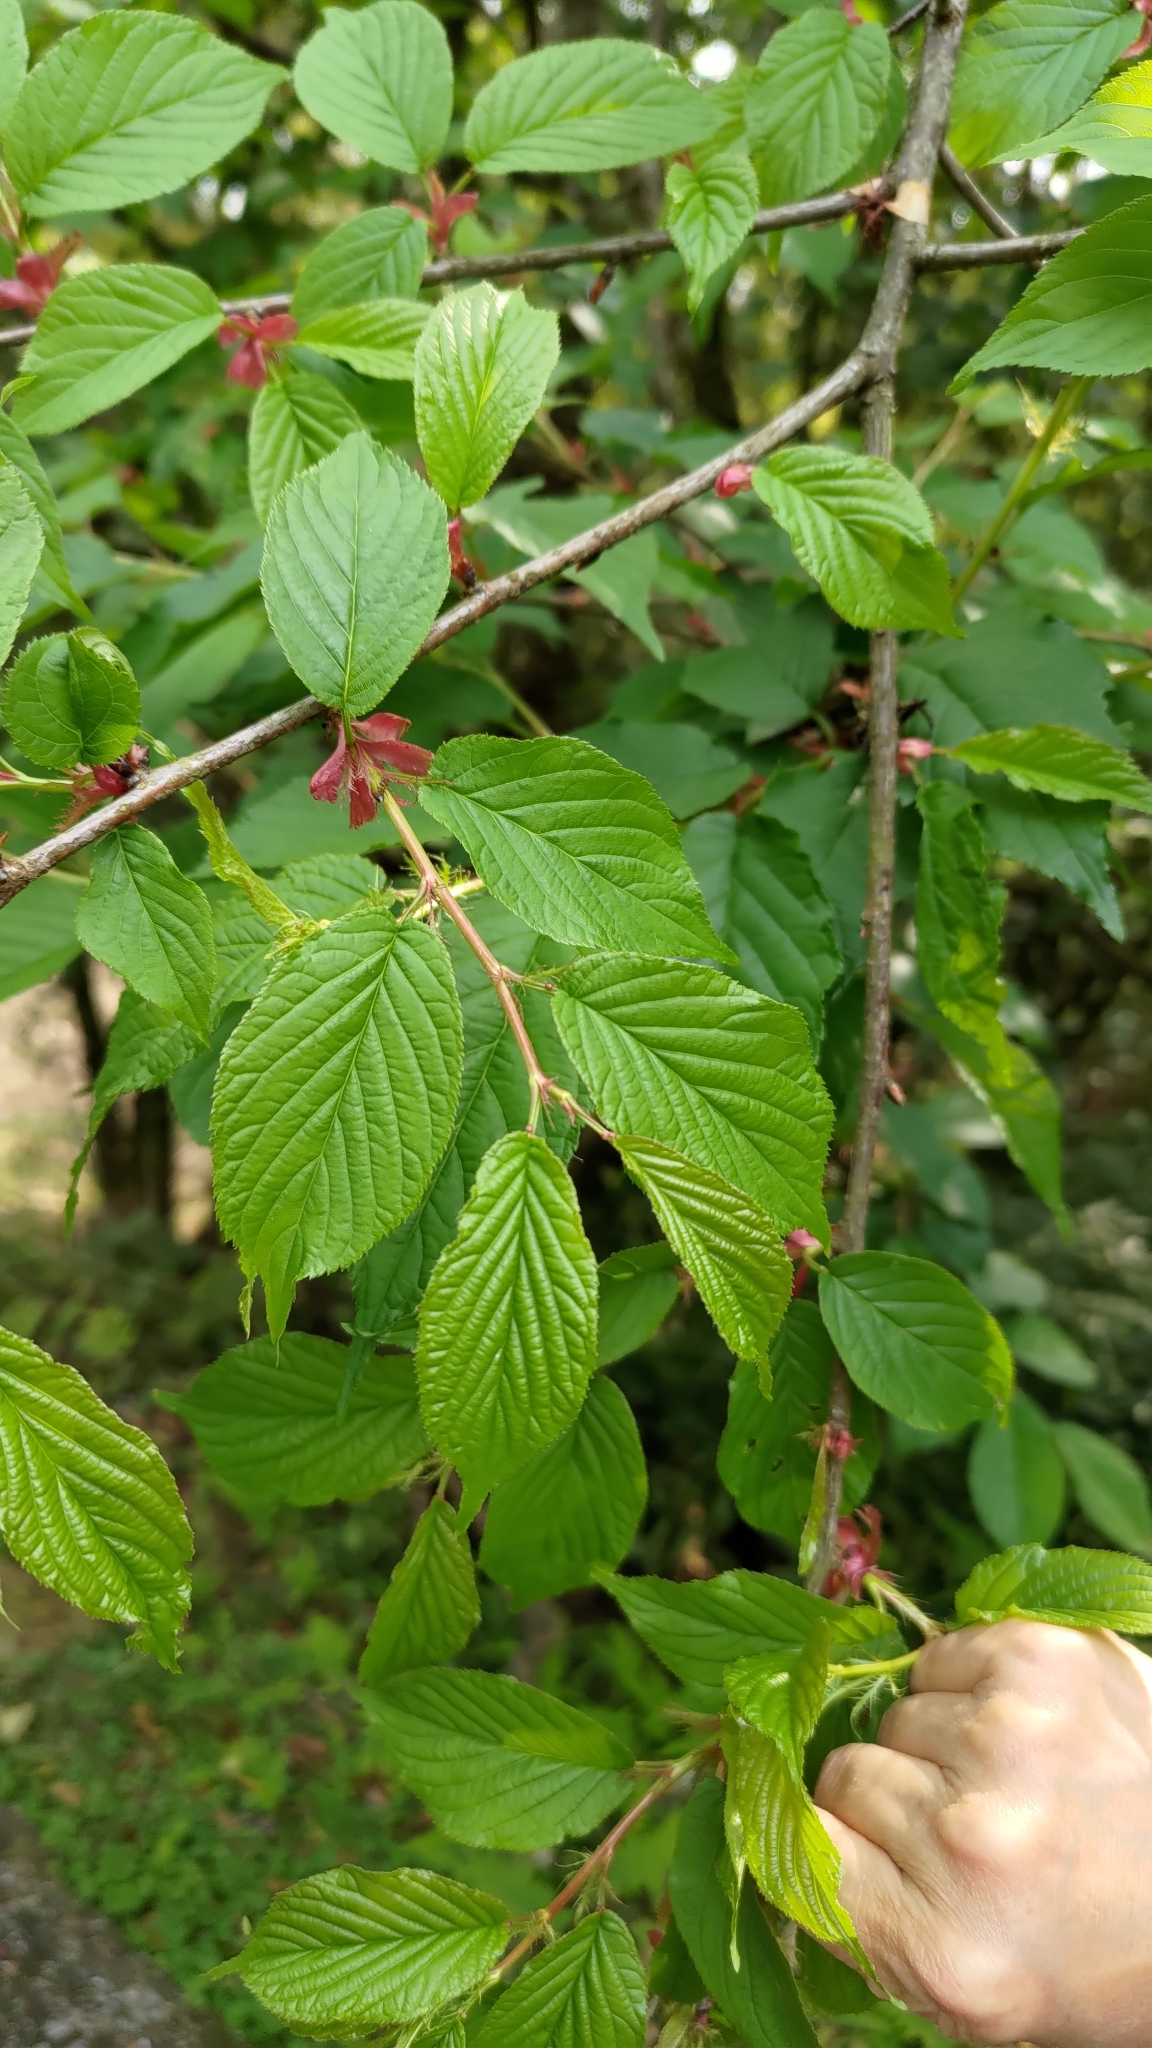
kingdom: Plantae
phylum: Tracheophyta
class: Magnoliopsida
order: Rosales
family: Rosaceae
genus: Prunus
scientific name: Prunus campanulata
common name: Taiwan flowering cherry
